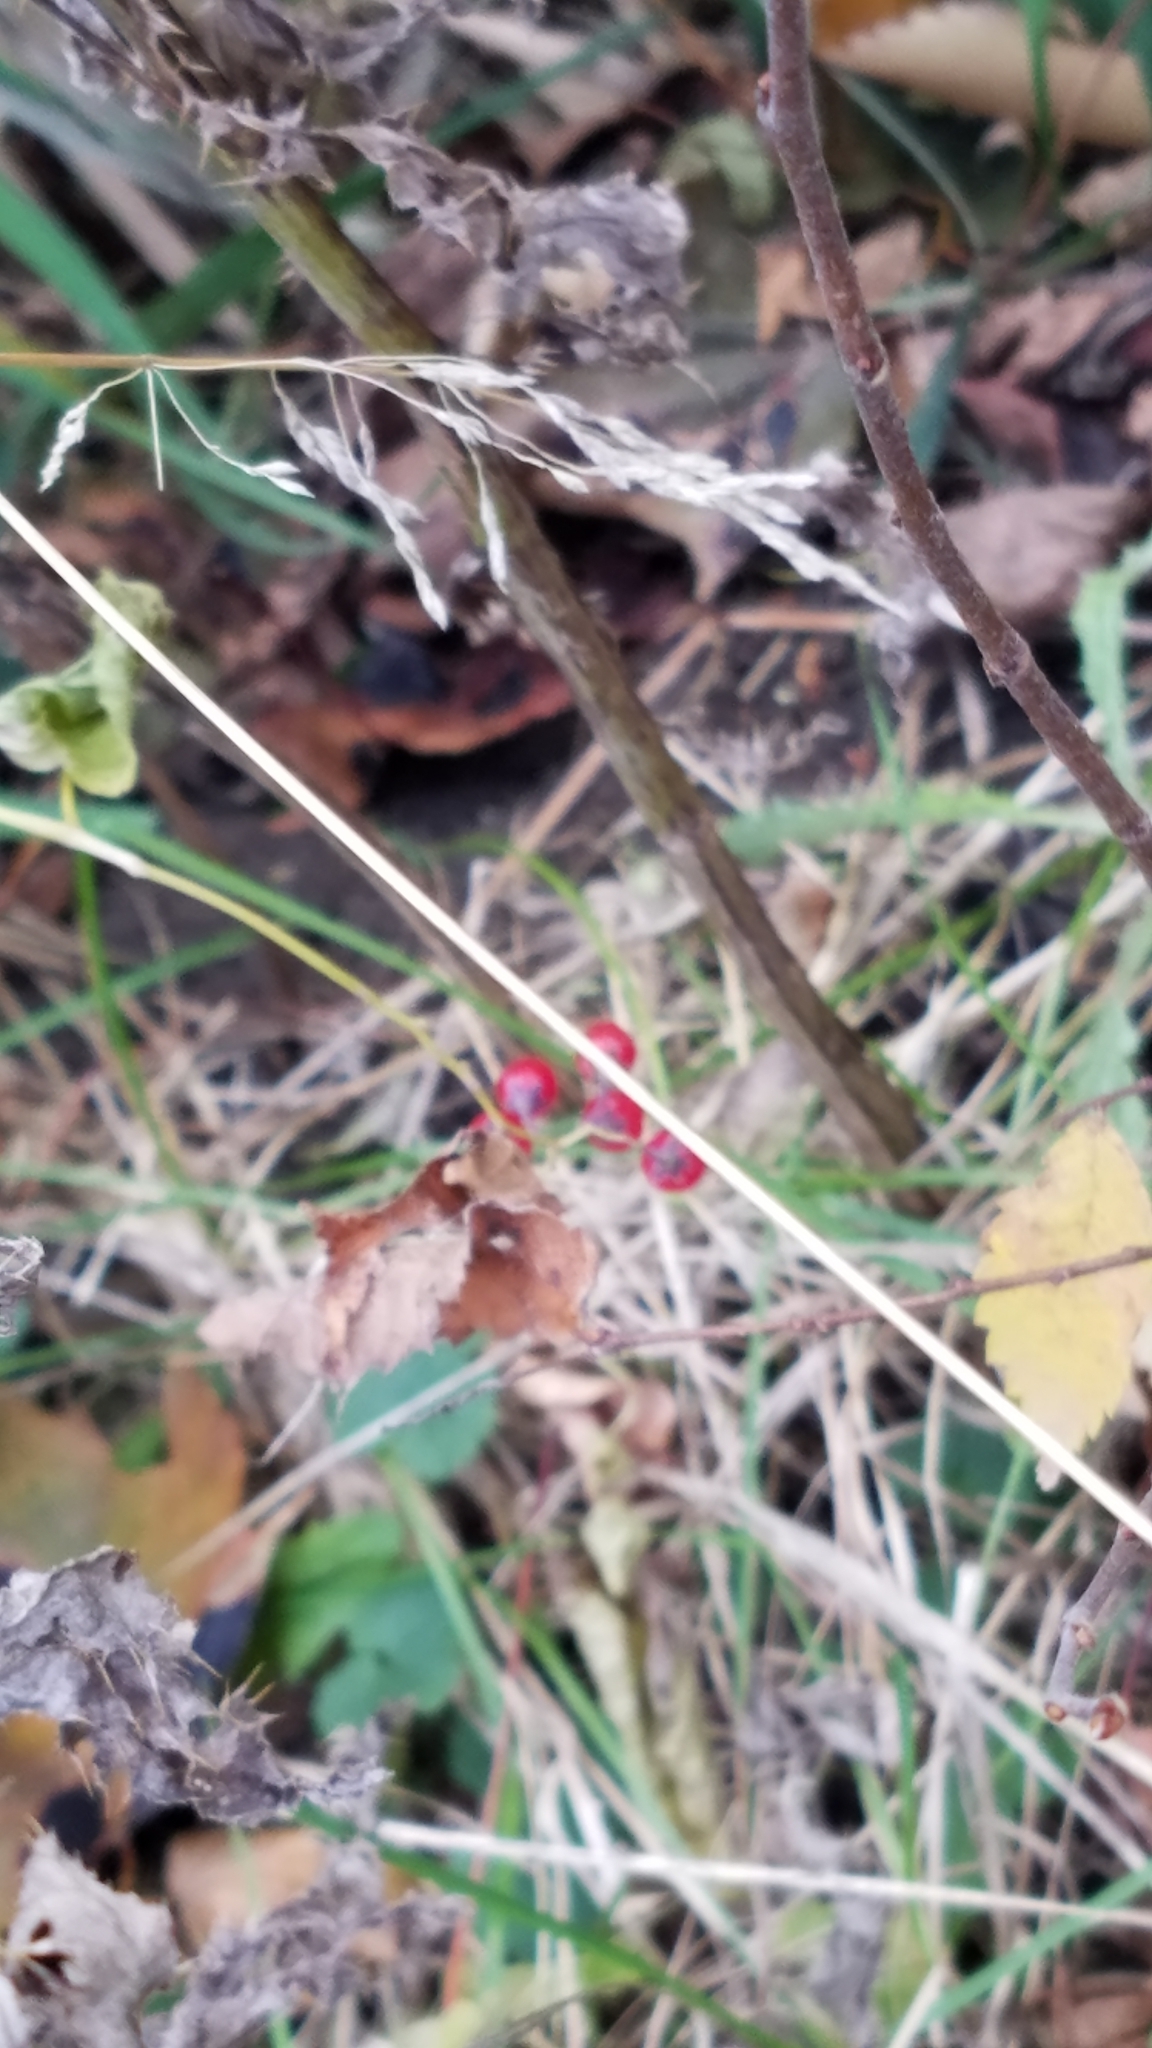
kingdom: Plantae
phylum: Tracheophyta
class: Magnoliopsida
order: Solanales
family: Solanaceae
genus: Solanum
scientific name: Solanum dulcamara
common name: Climbing nightshade
